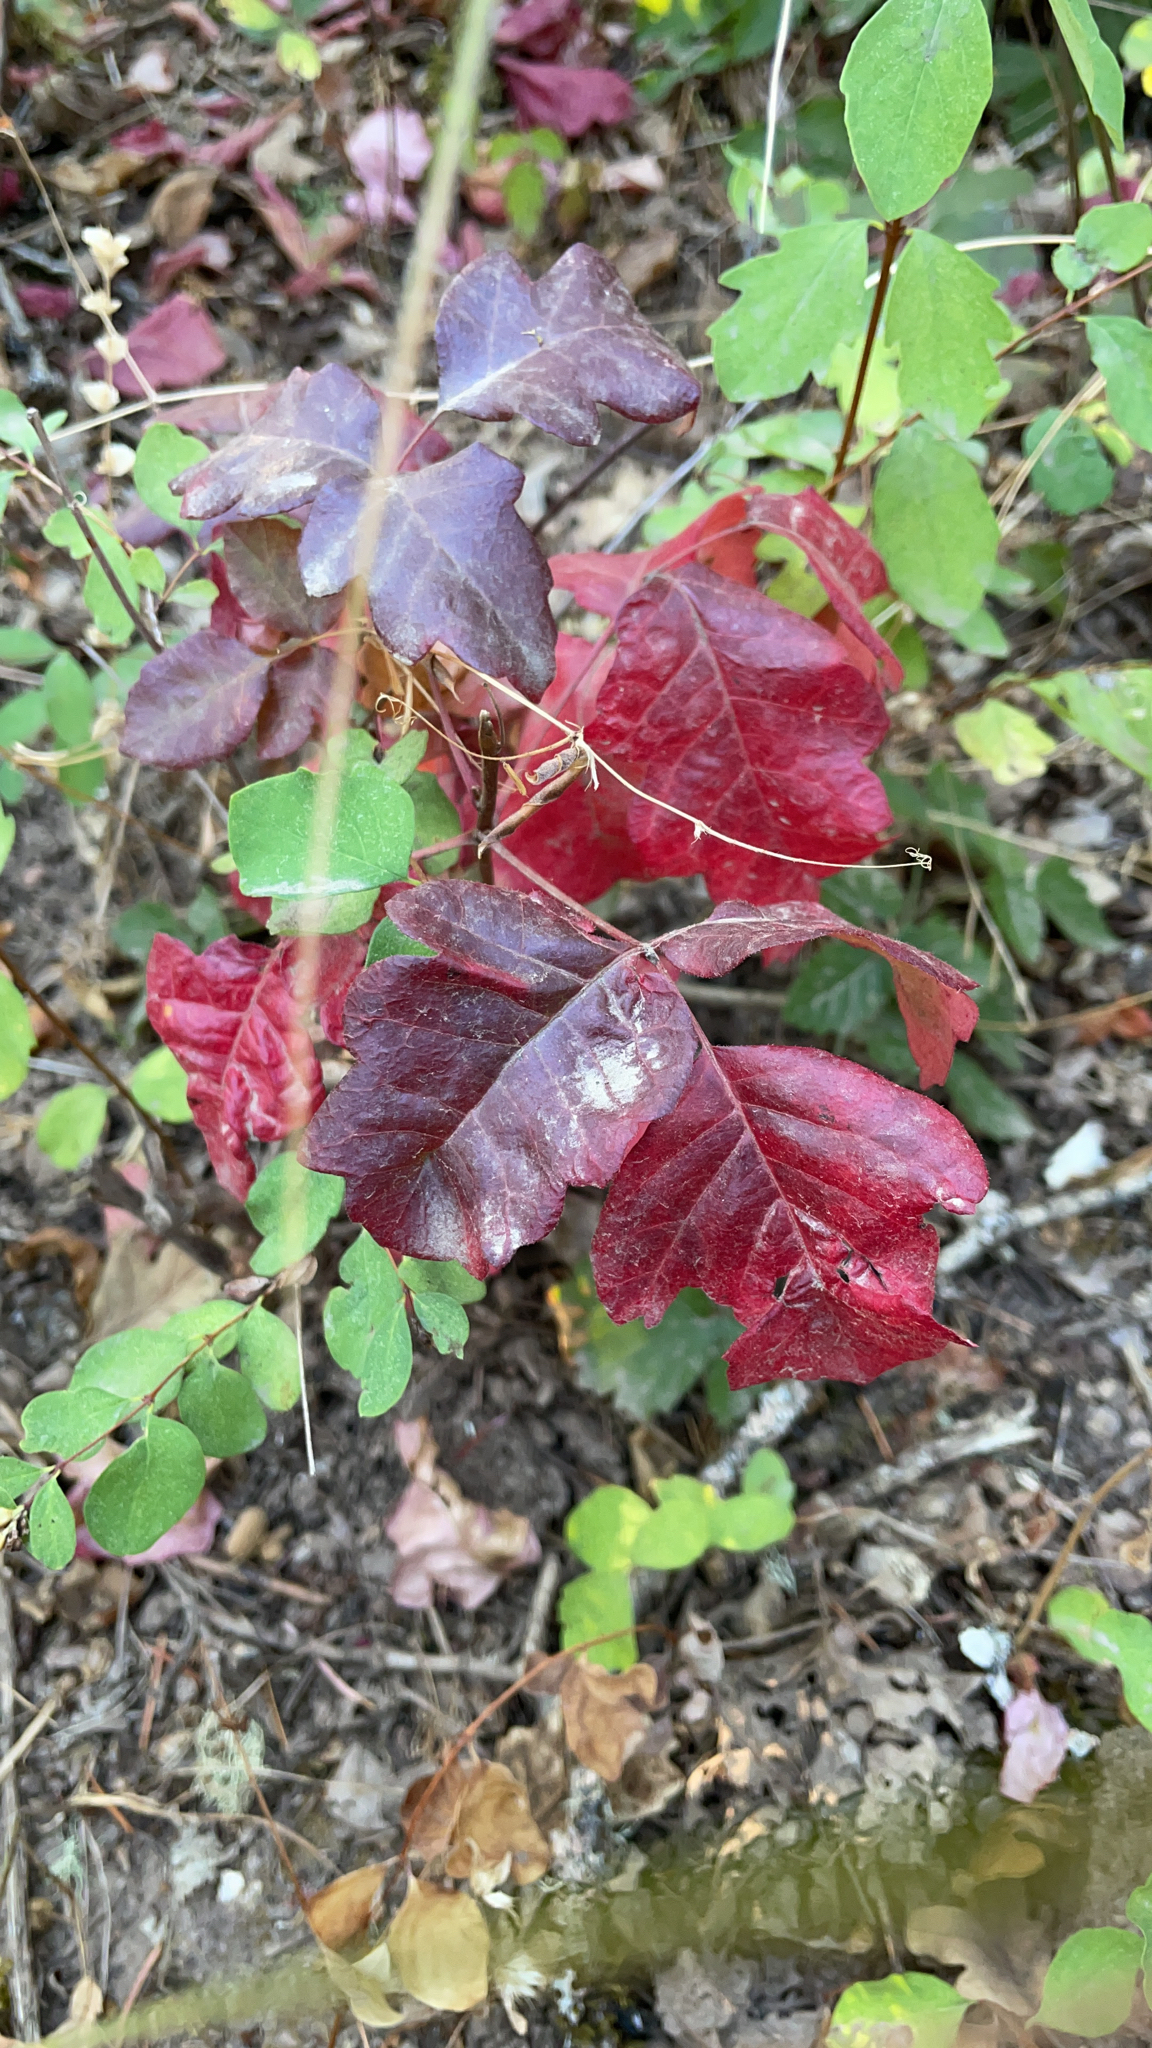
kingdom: Plantae
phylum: Tracheophyta
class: Magnoliopsida
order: Sapindales
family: Anacardiaceae
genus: Toxicodendron
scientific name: Toxicodendron diversilobum
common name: Pacific poison-oak
